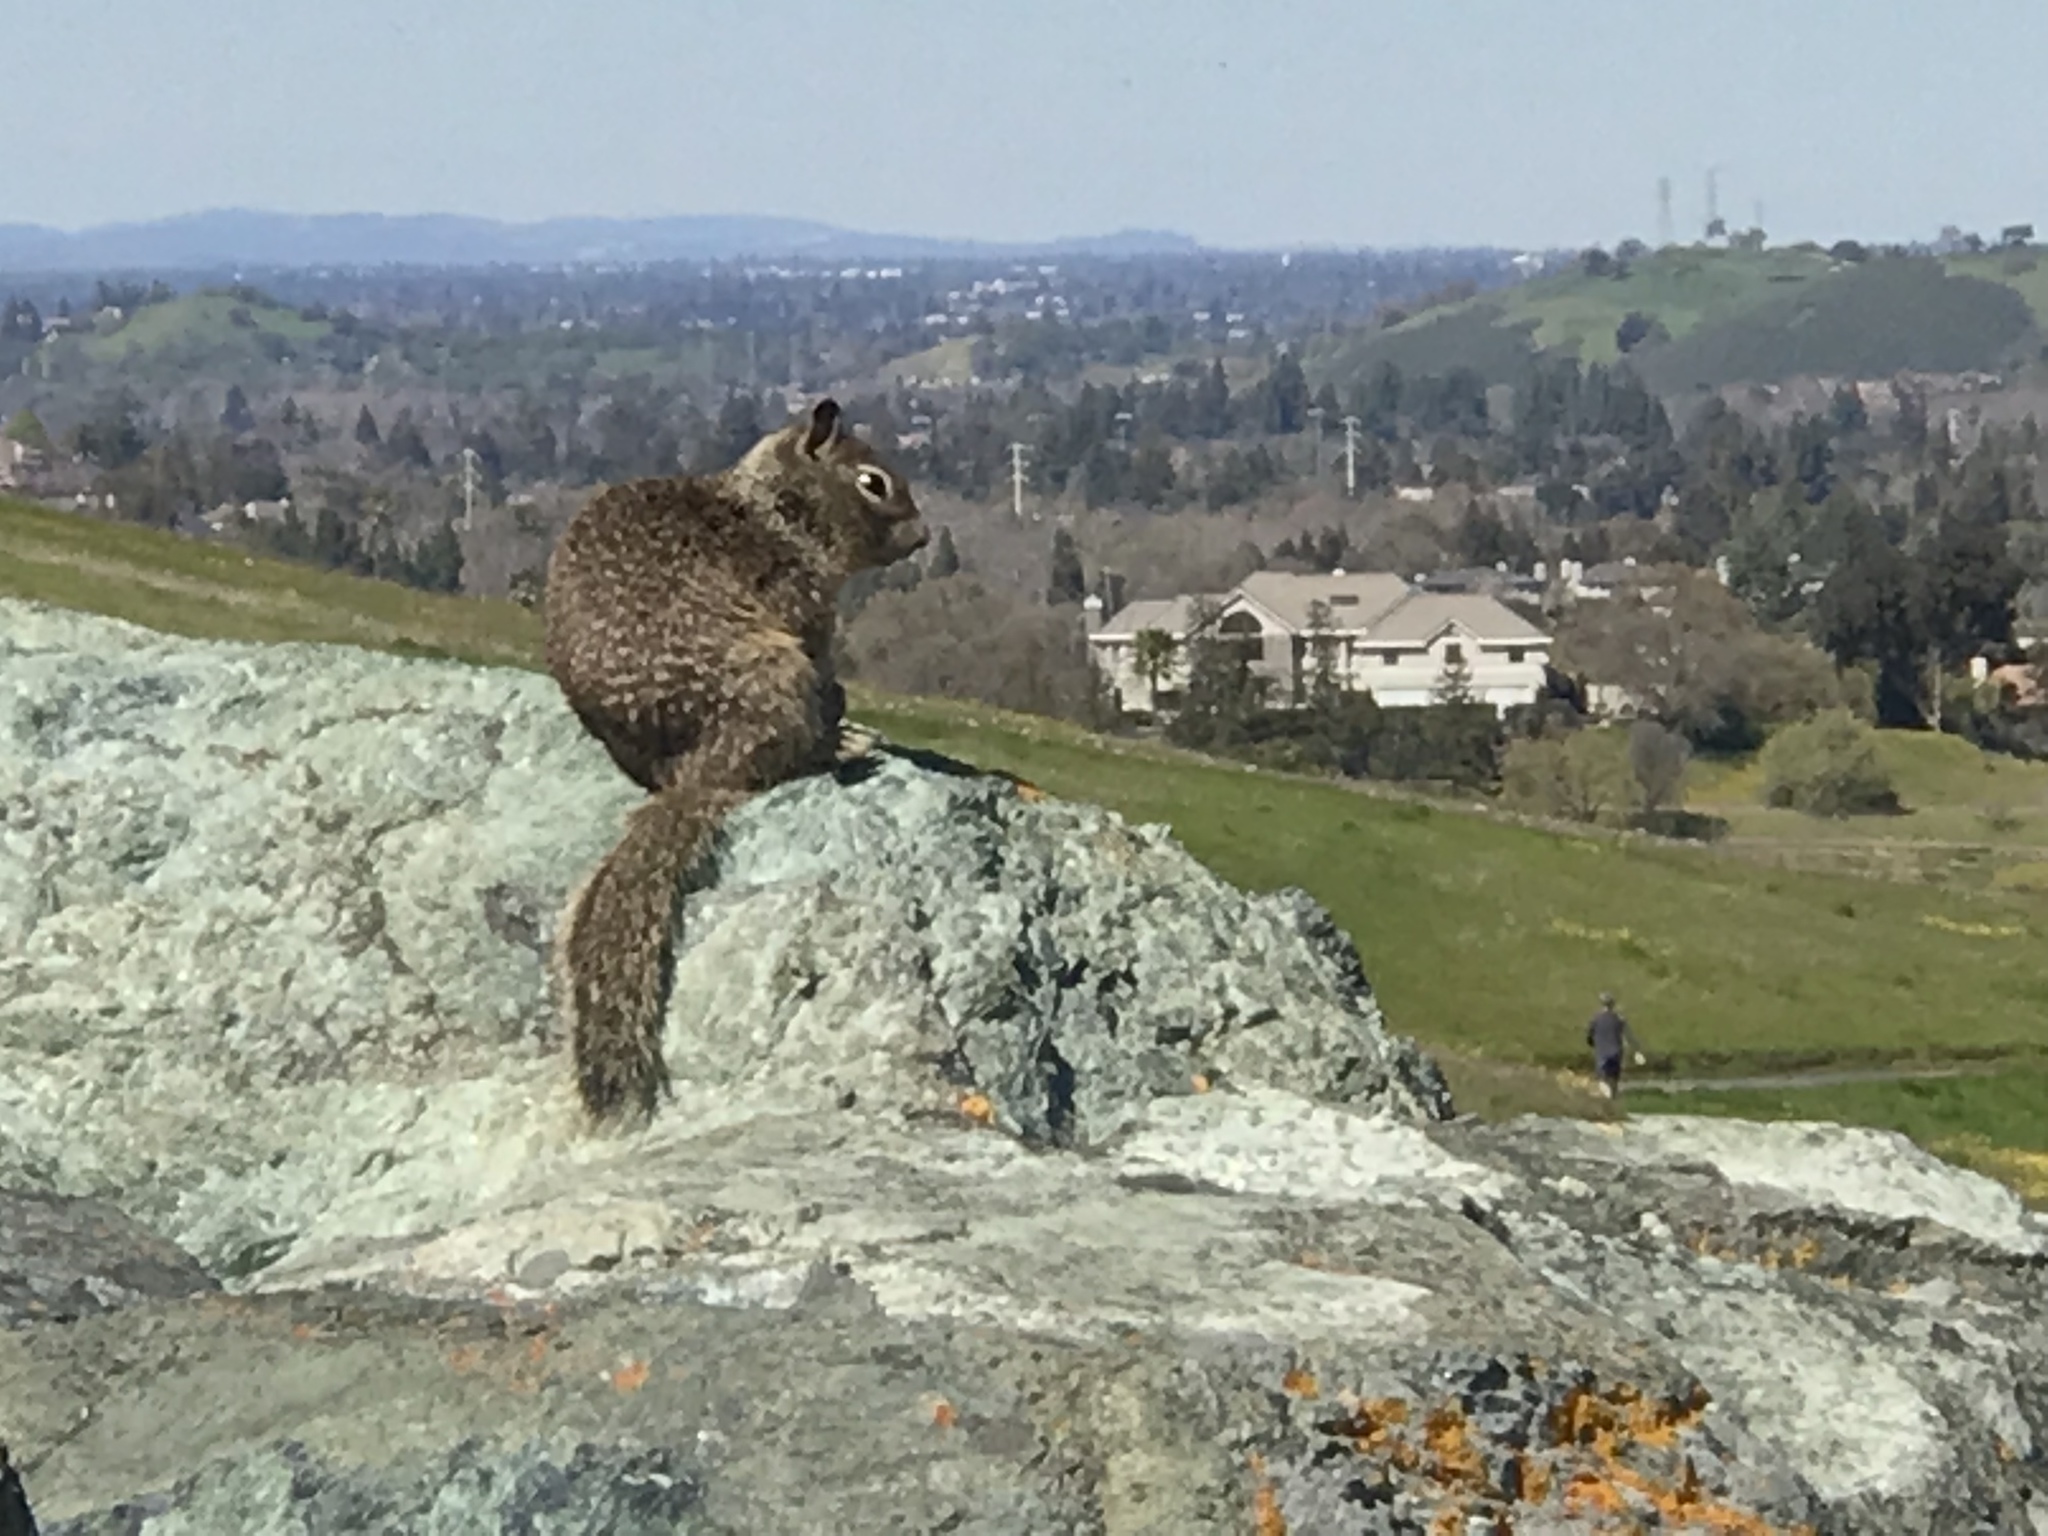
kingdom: Animalia
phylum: Chordata
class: Mammalia
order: Rodentia
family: Sciuridae
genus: Otospermophilus
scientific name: Otospermophilus beecheyi
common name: California ground squirrel
